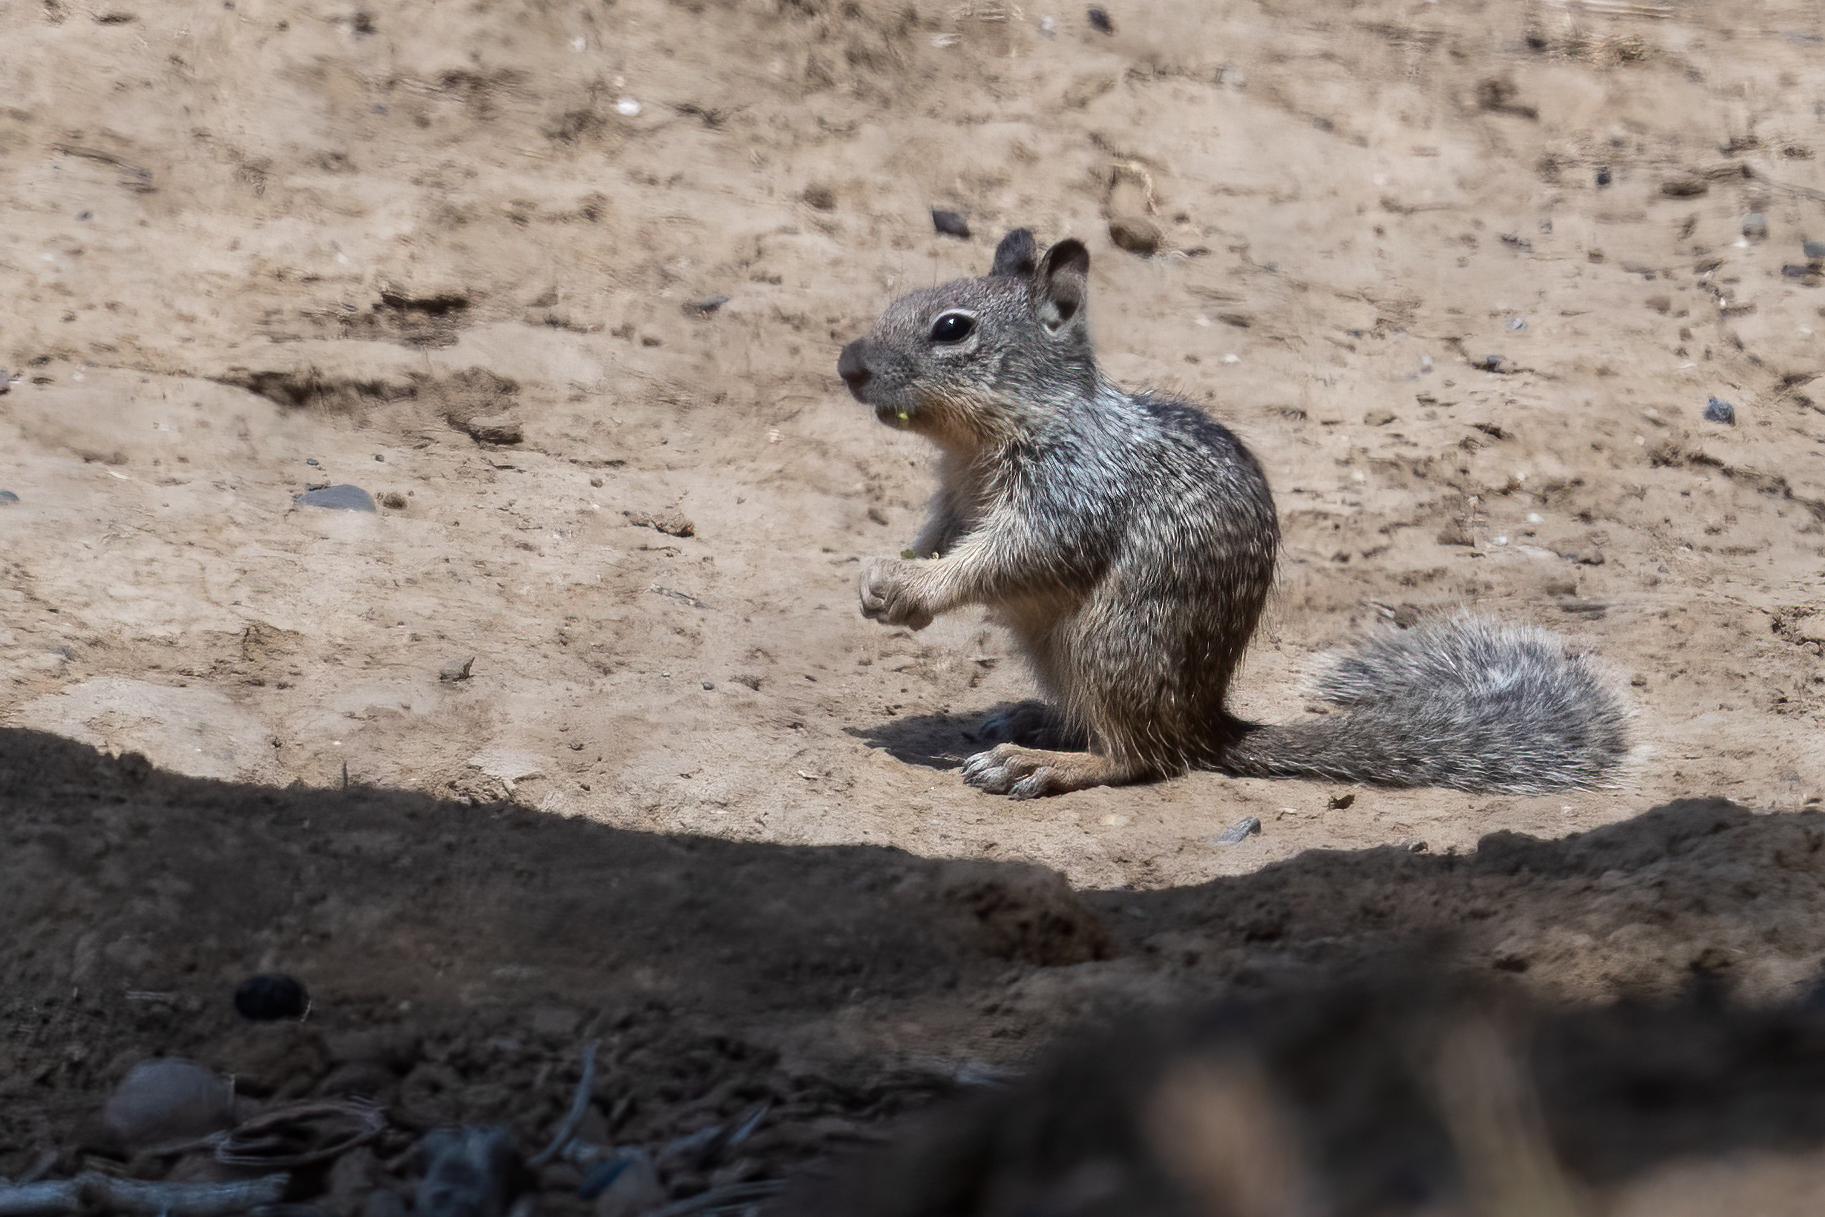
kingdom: Animalia
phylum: Chordata
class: Mammalia
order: Rodentia
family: Sciuridae
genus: Otospermophilus
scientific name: Otospermophilus beecheyi
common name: California ground squirrel
